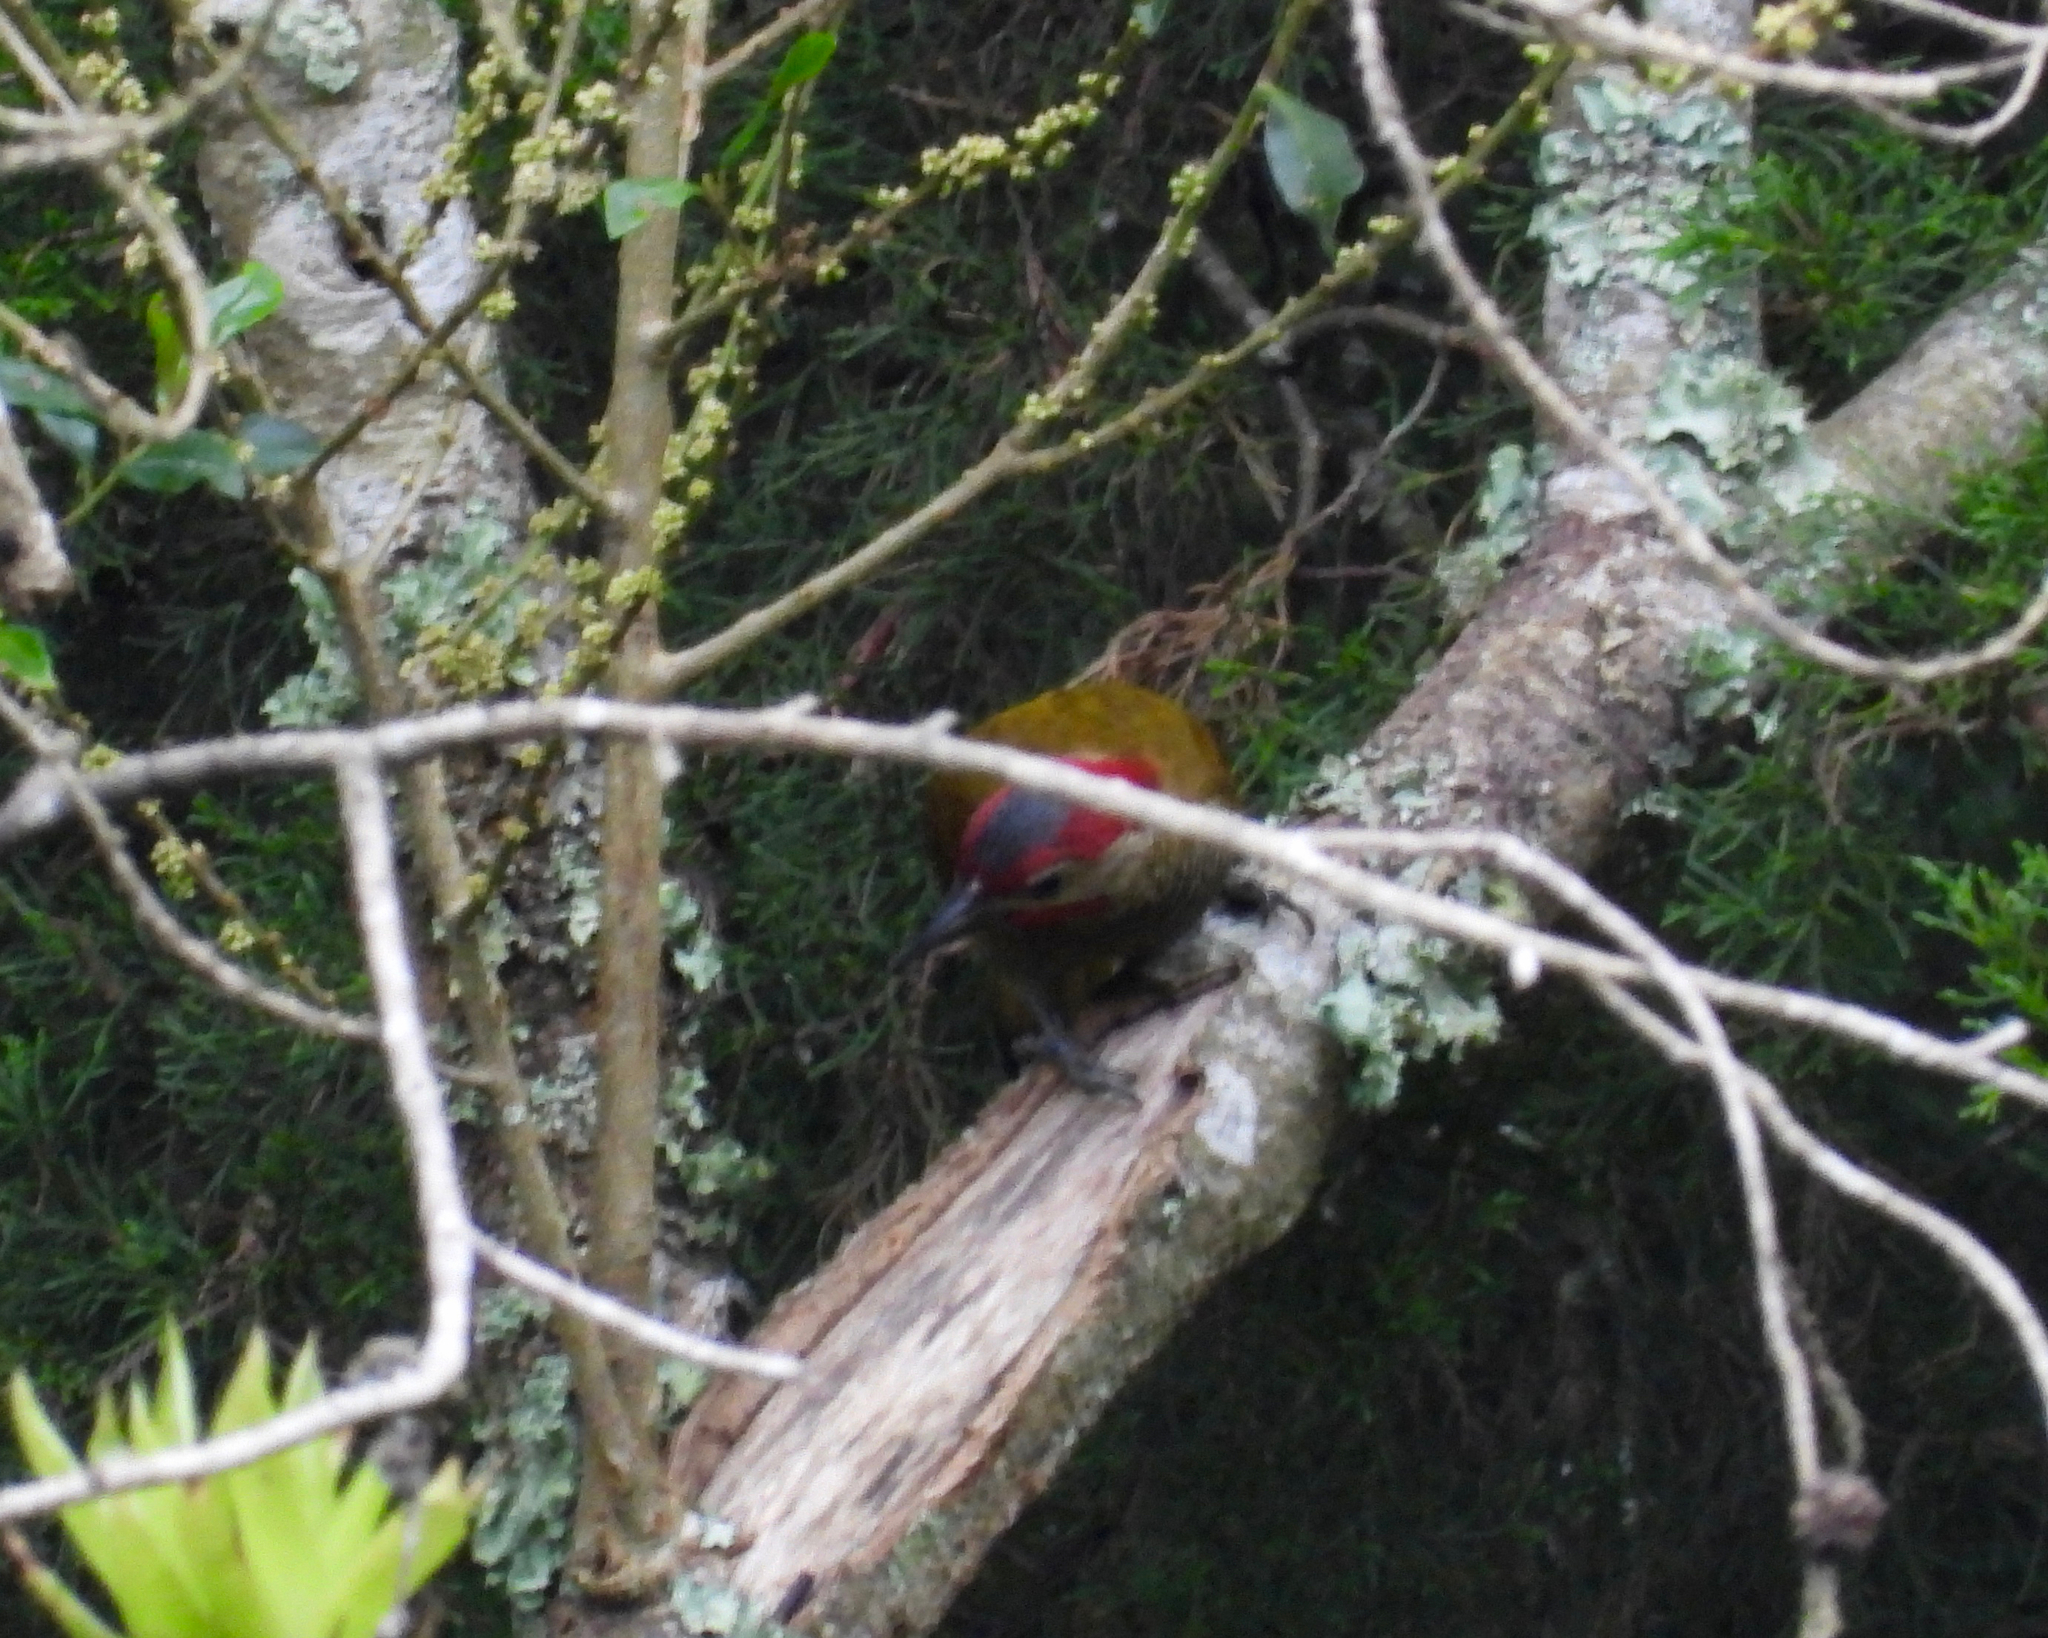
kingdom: Animalia
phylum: Chordata
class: Aves
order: Piciformes
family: Picidae
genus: Colaptes
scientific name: Colaptes rubiginosus
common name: Golden-olive woodpecker
